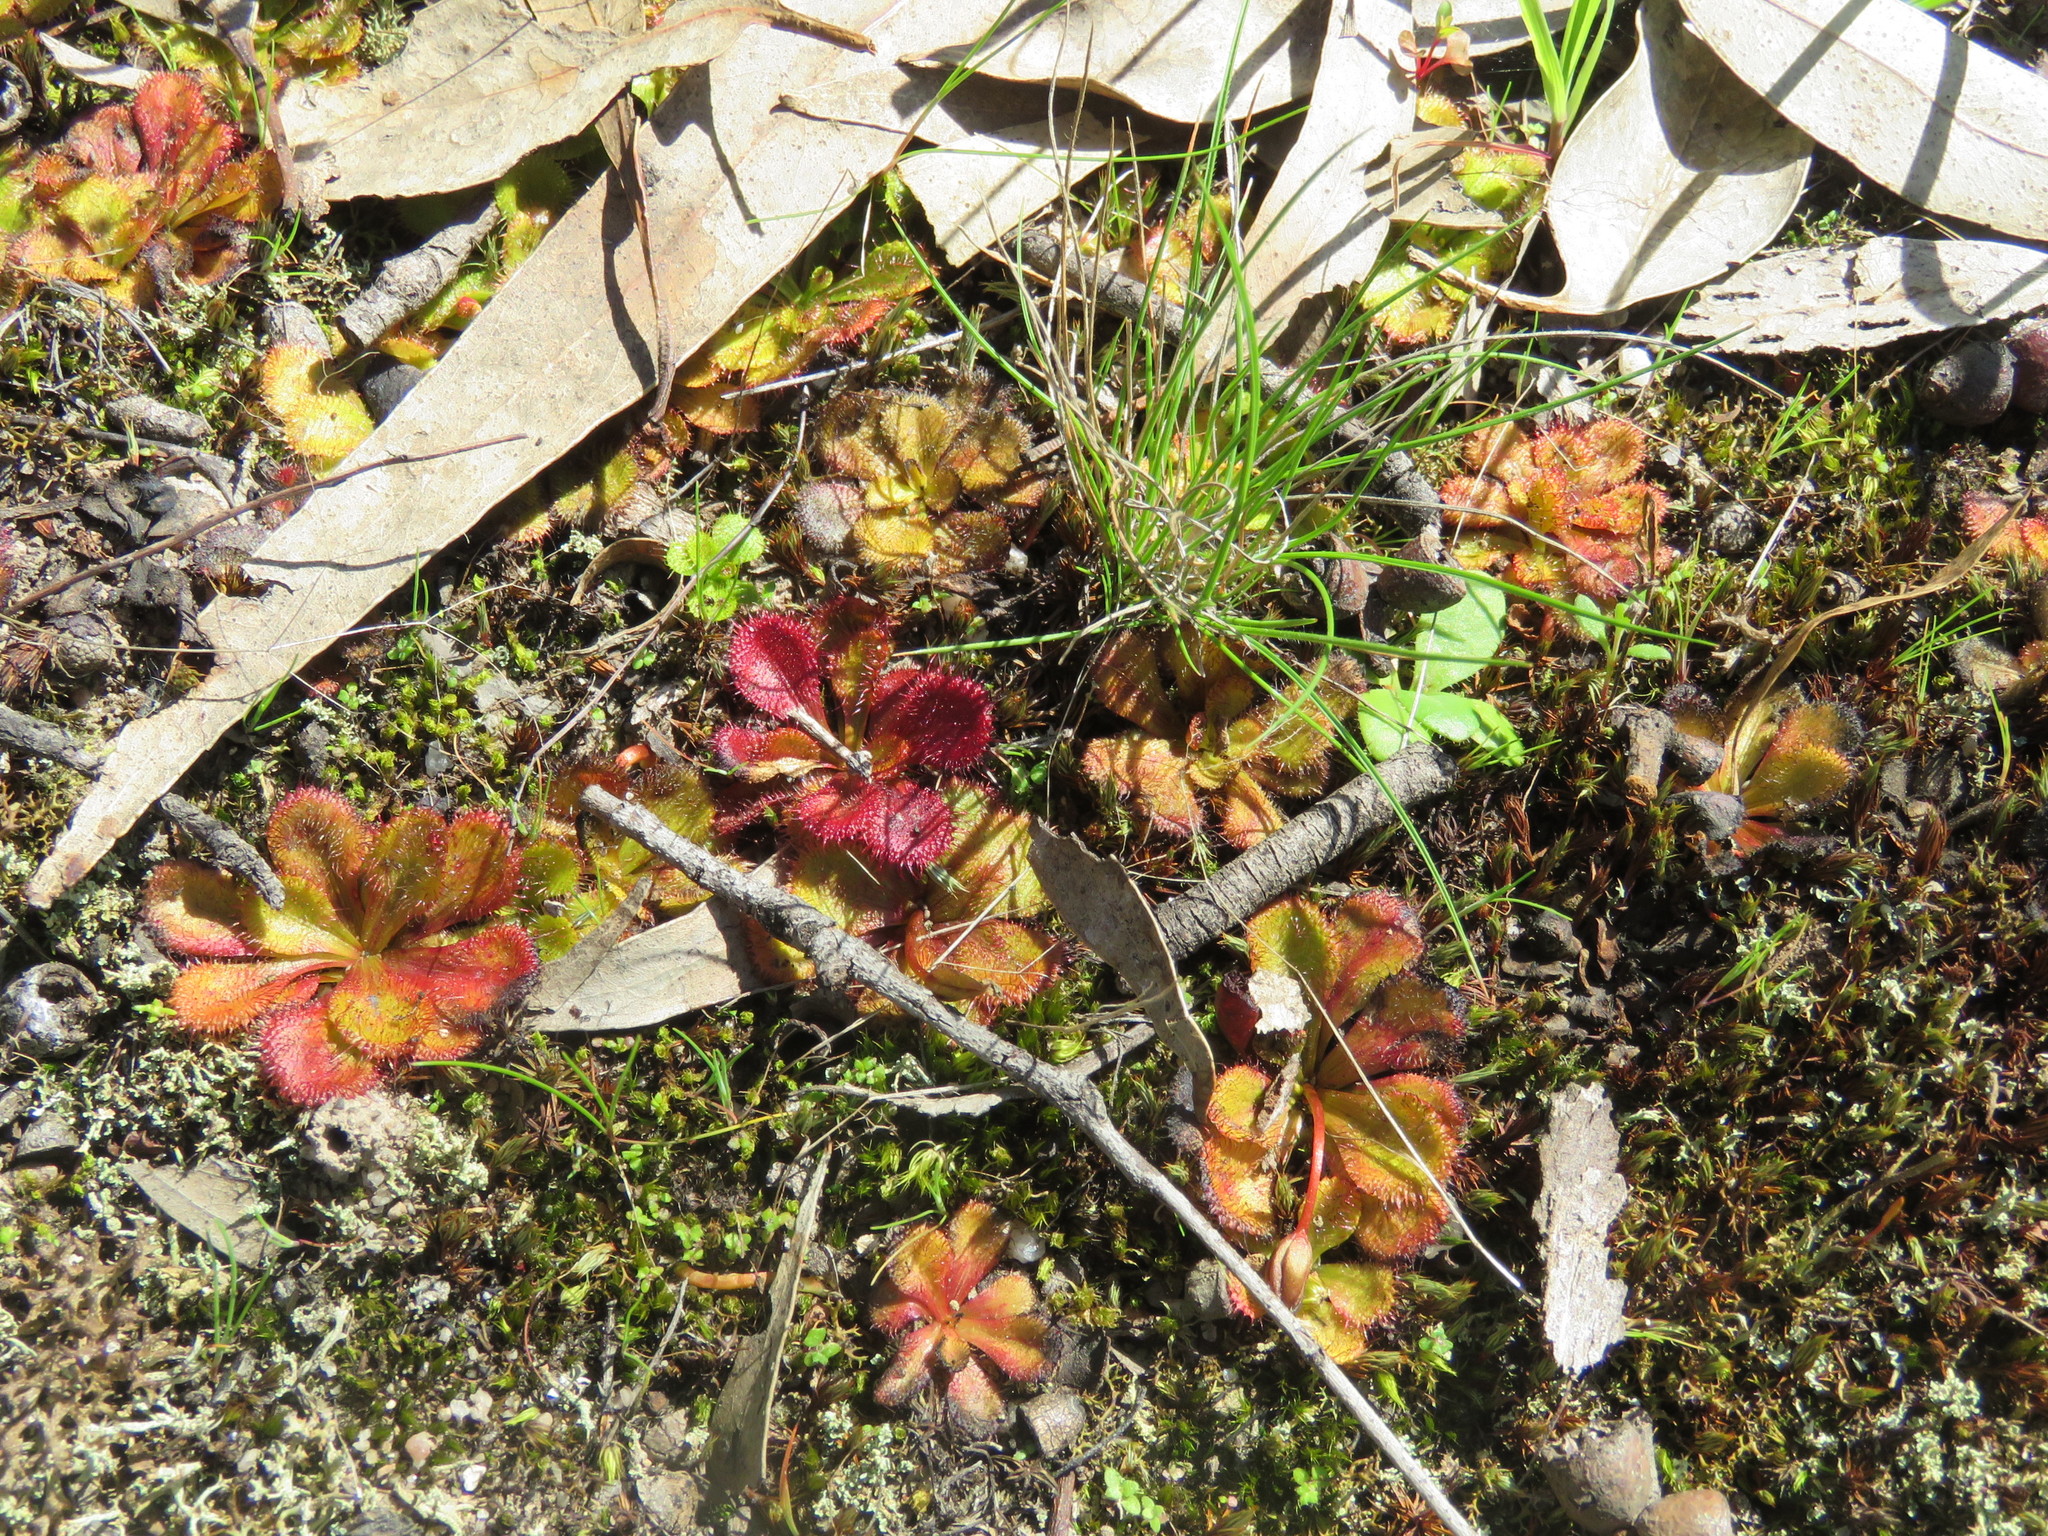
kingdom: Plantae
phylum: Tracheophyta
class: Magnoliopsida
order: Caryophyllales
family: Droseraceae
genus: Drosera
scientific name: Drosera aberrans
